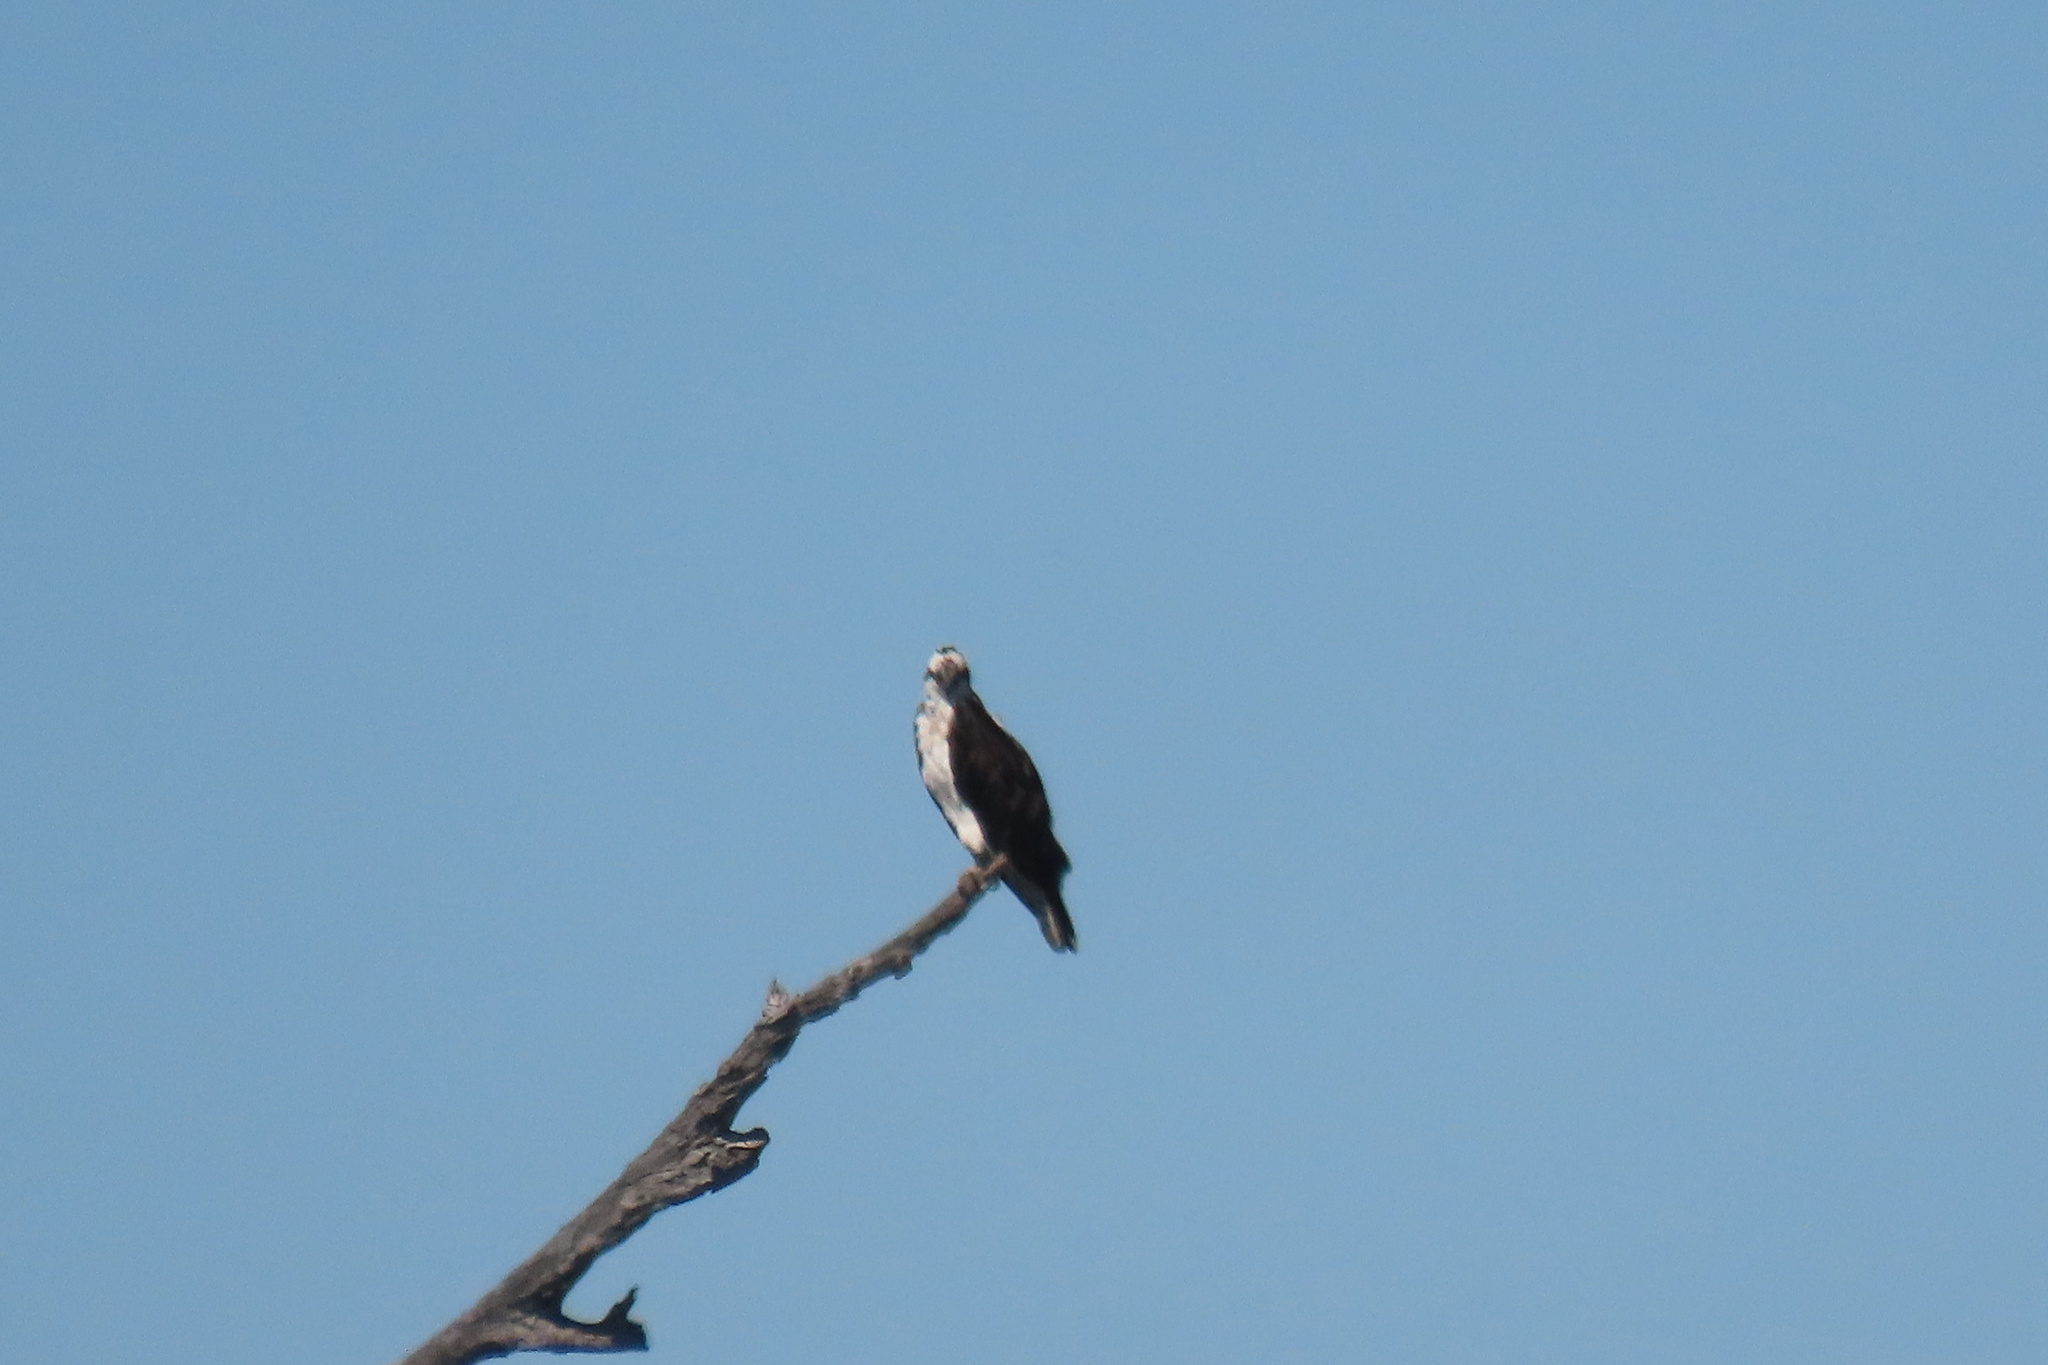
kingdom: Animalia
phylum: Chordata
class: Aves
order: Accipitriformes
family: Pandionidae
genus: Pandion
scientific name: Pandion haliaetus
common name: Osprey
